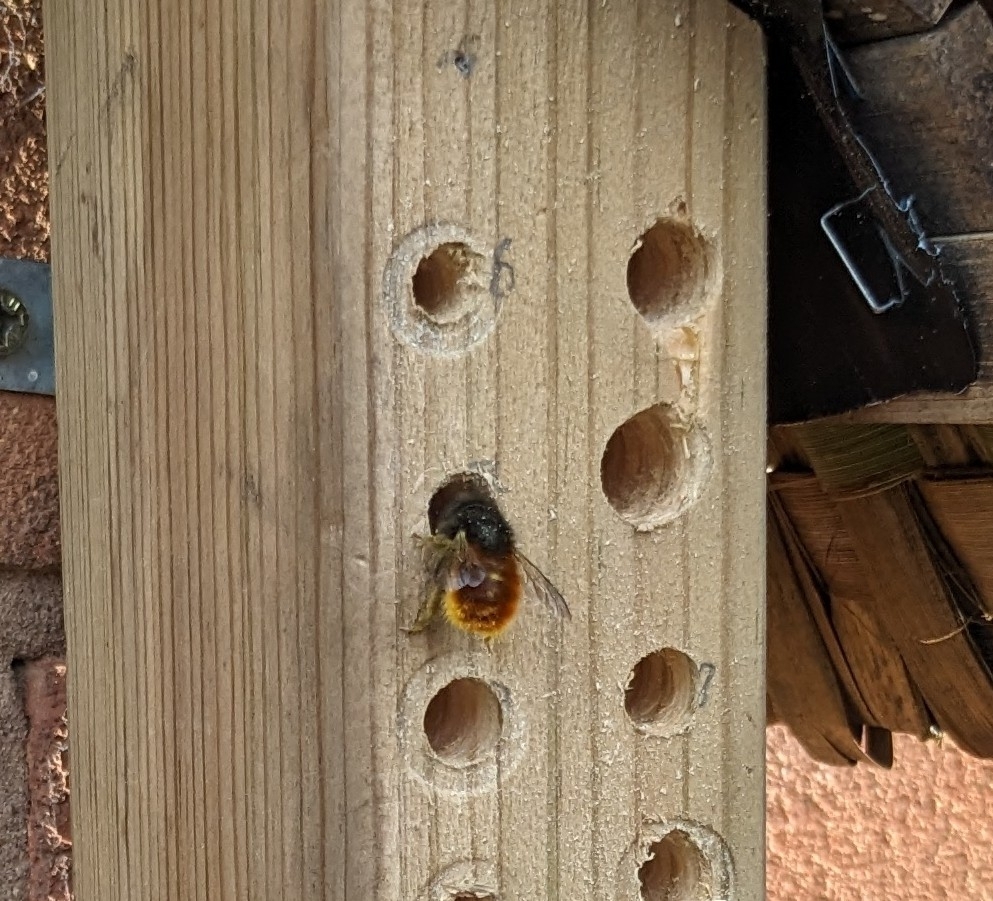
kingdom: Animalia
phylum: Arthropoda
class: Insecta
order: Hymenoptera
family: Megachilidae
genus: Osmia
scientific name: Osmia cornuta
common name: Mason bee
